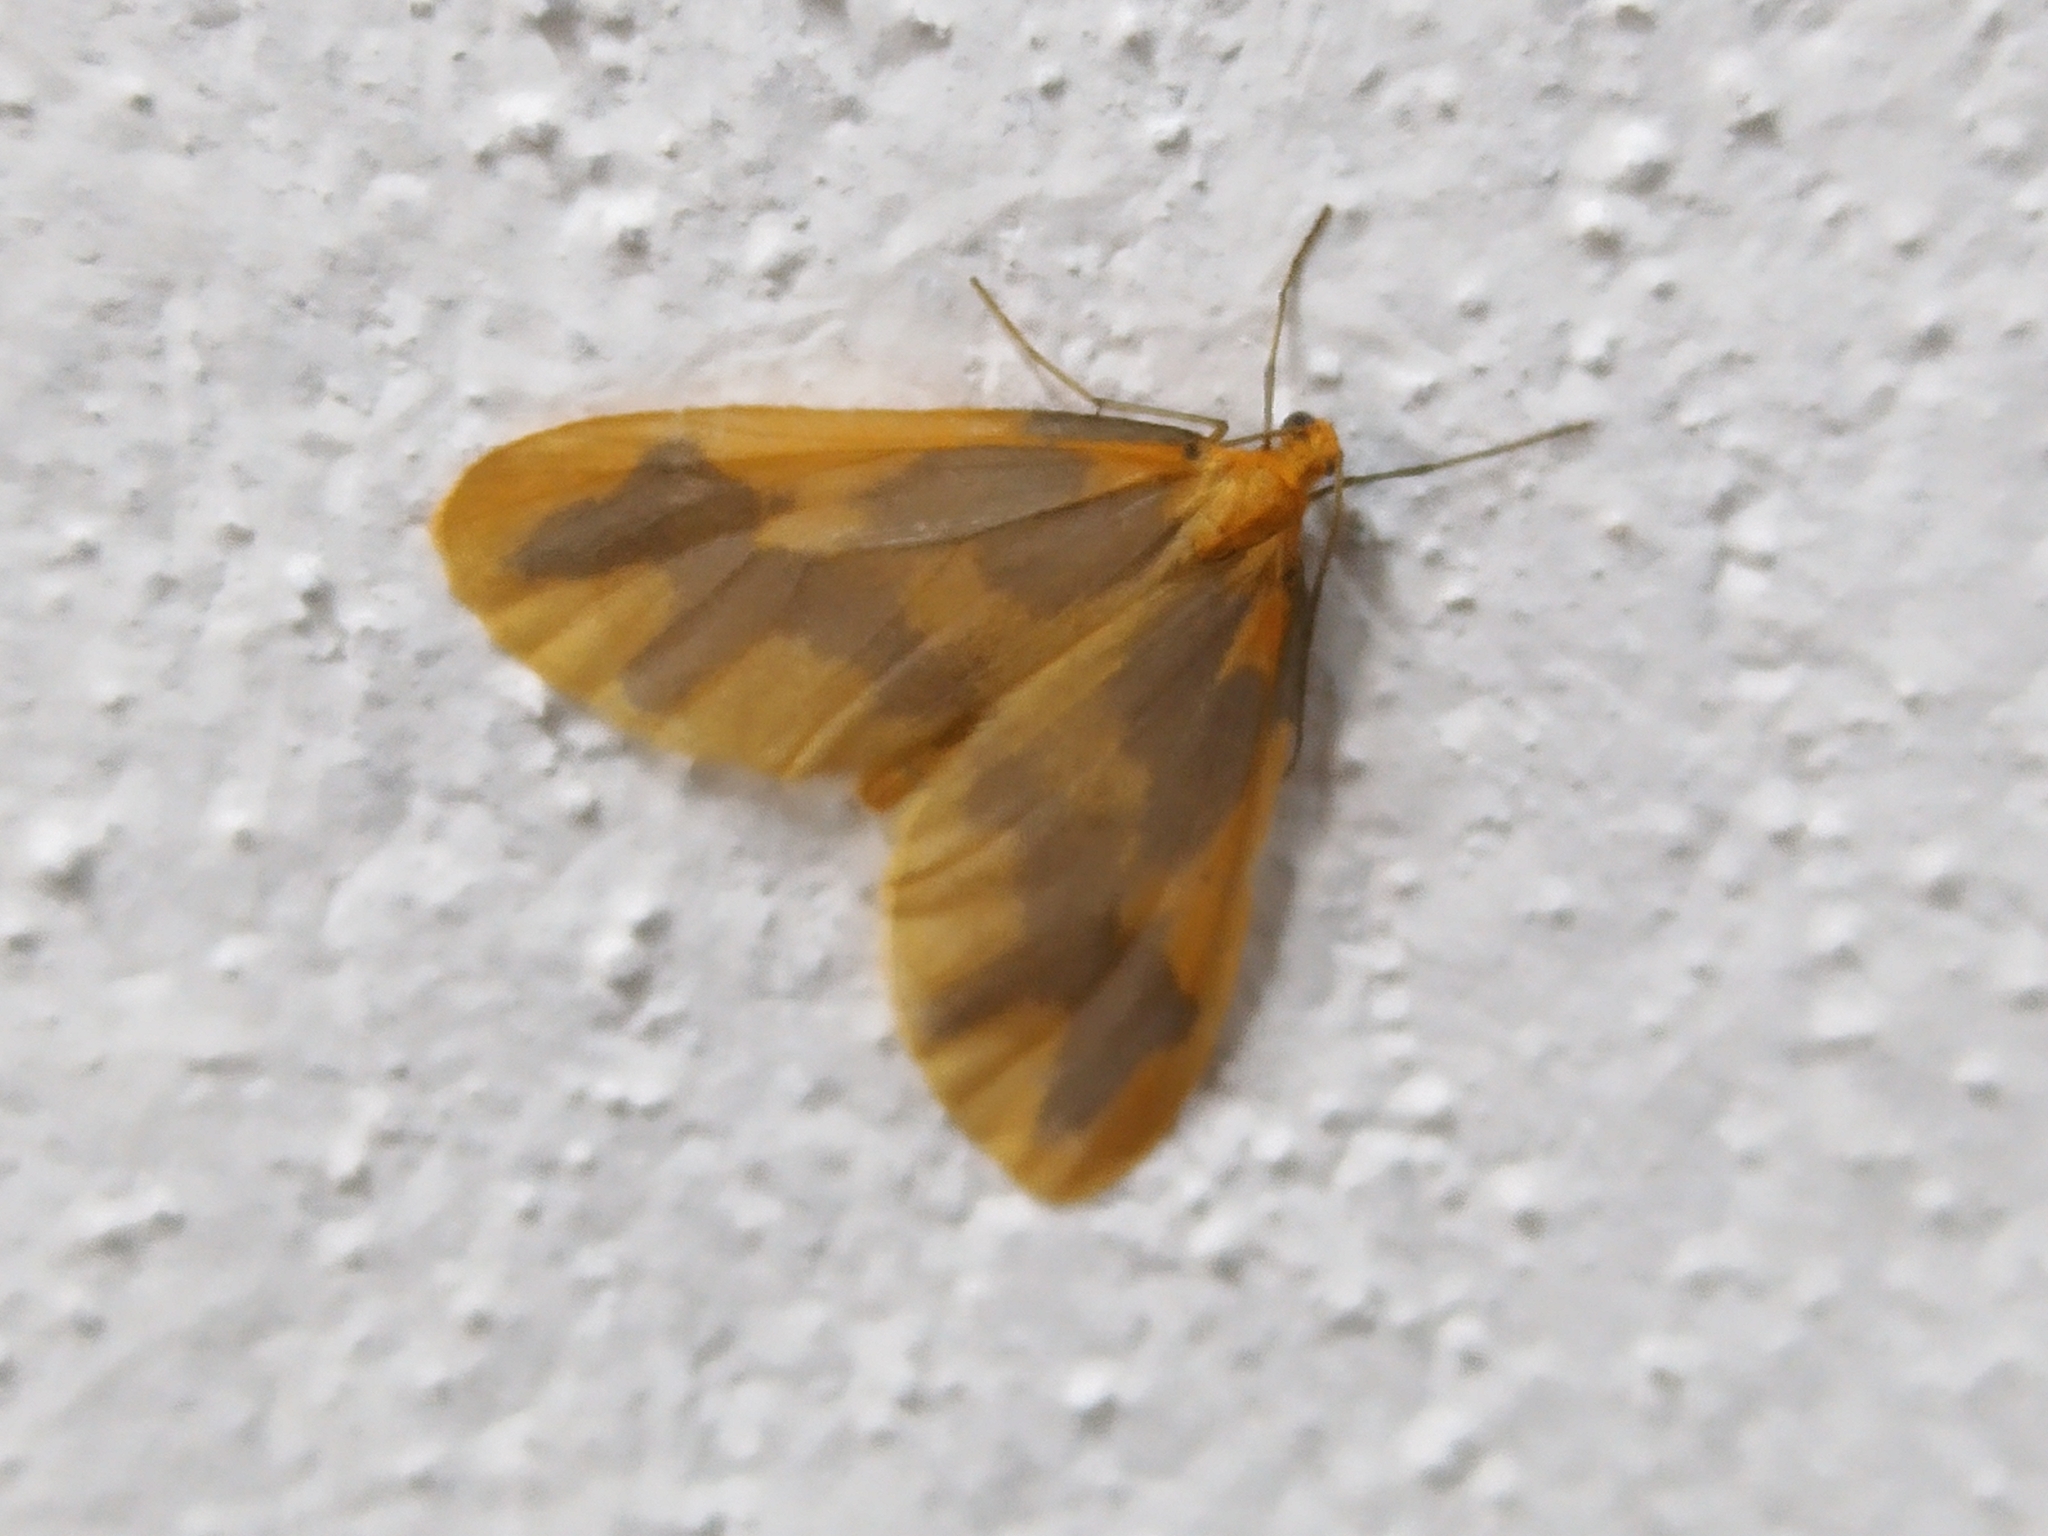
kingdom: Animalia
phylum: Arthropoda
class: Insecta
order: Lepidoptera
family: Geometridae
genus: Eubaphe
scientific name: Eubaphe pauper
